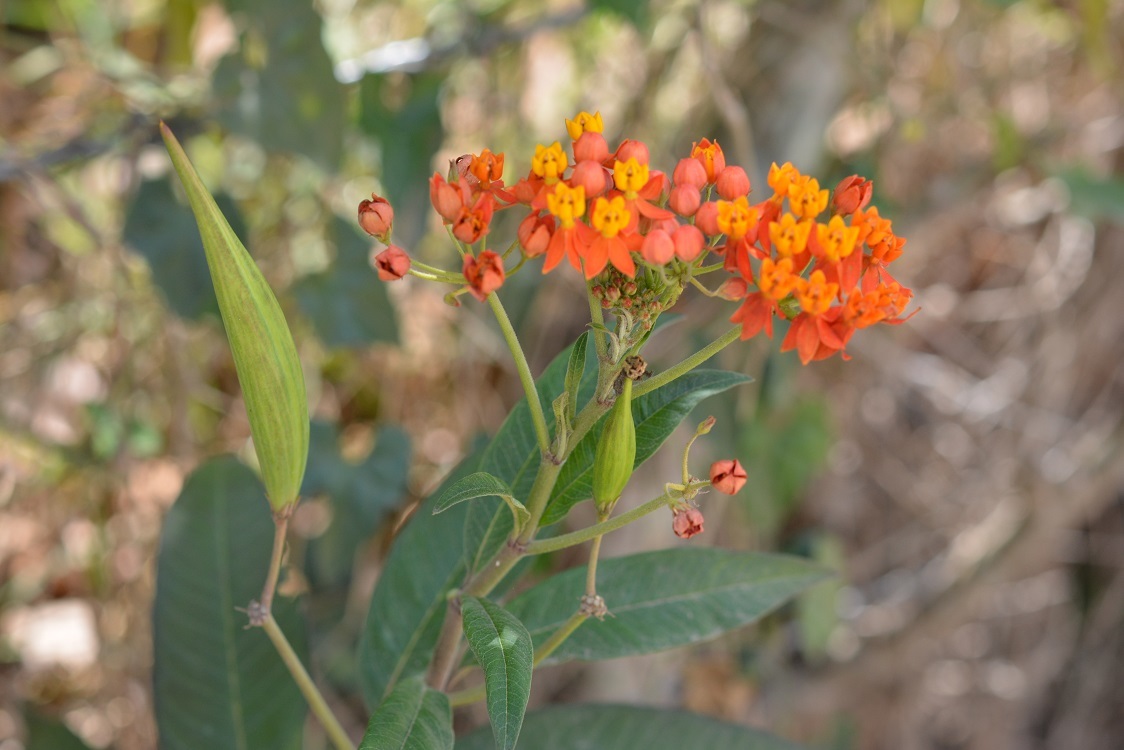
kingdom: Plantae
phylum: Tracheophyta
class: Magnoliopsida
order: Gentianales
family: Apocynaceae
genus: Asclepias
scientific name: Asclepias curassavica
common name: Bloodflower
